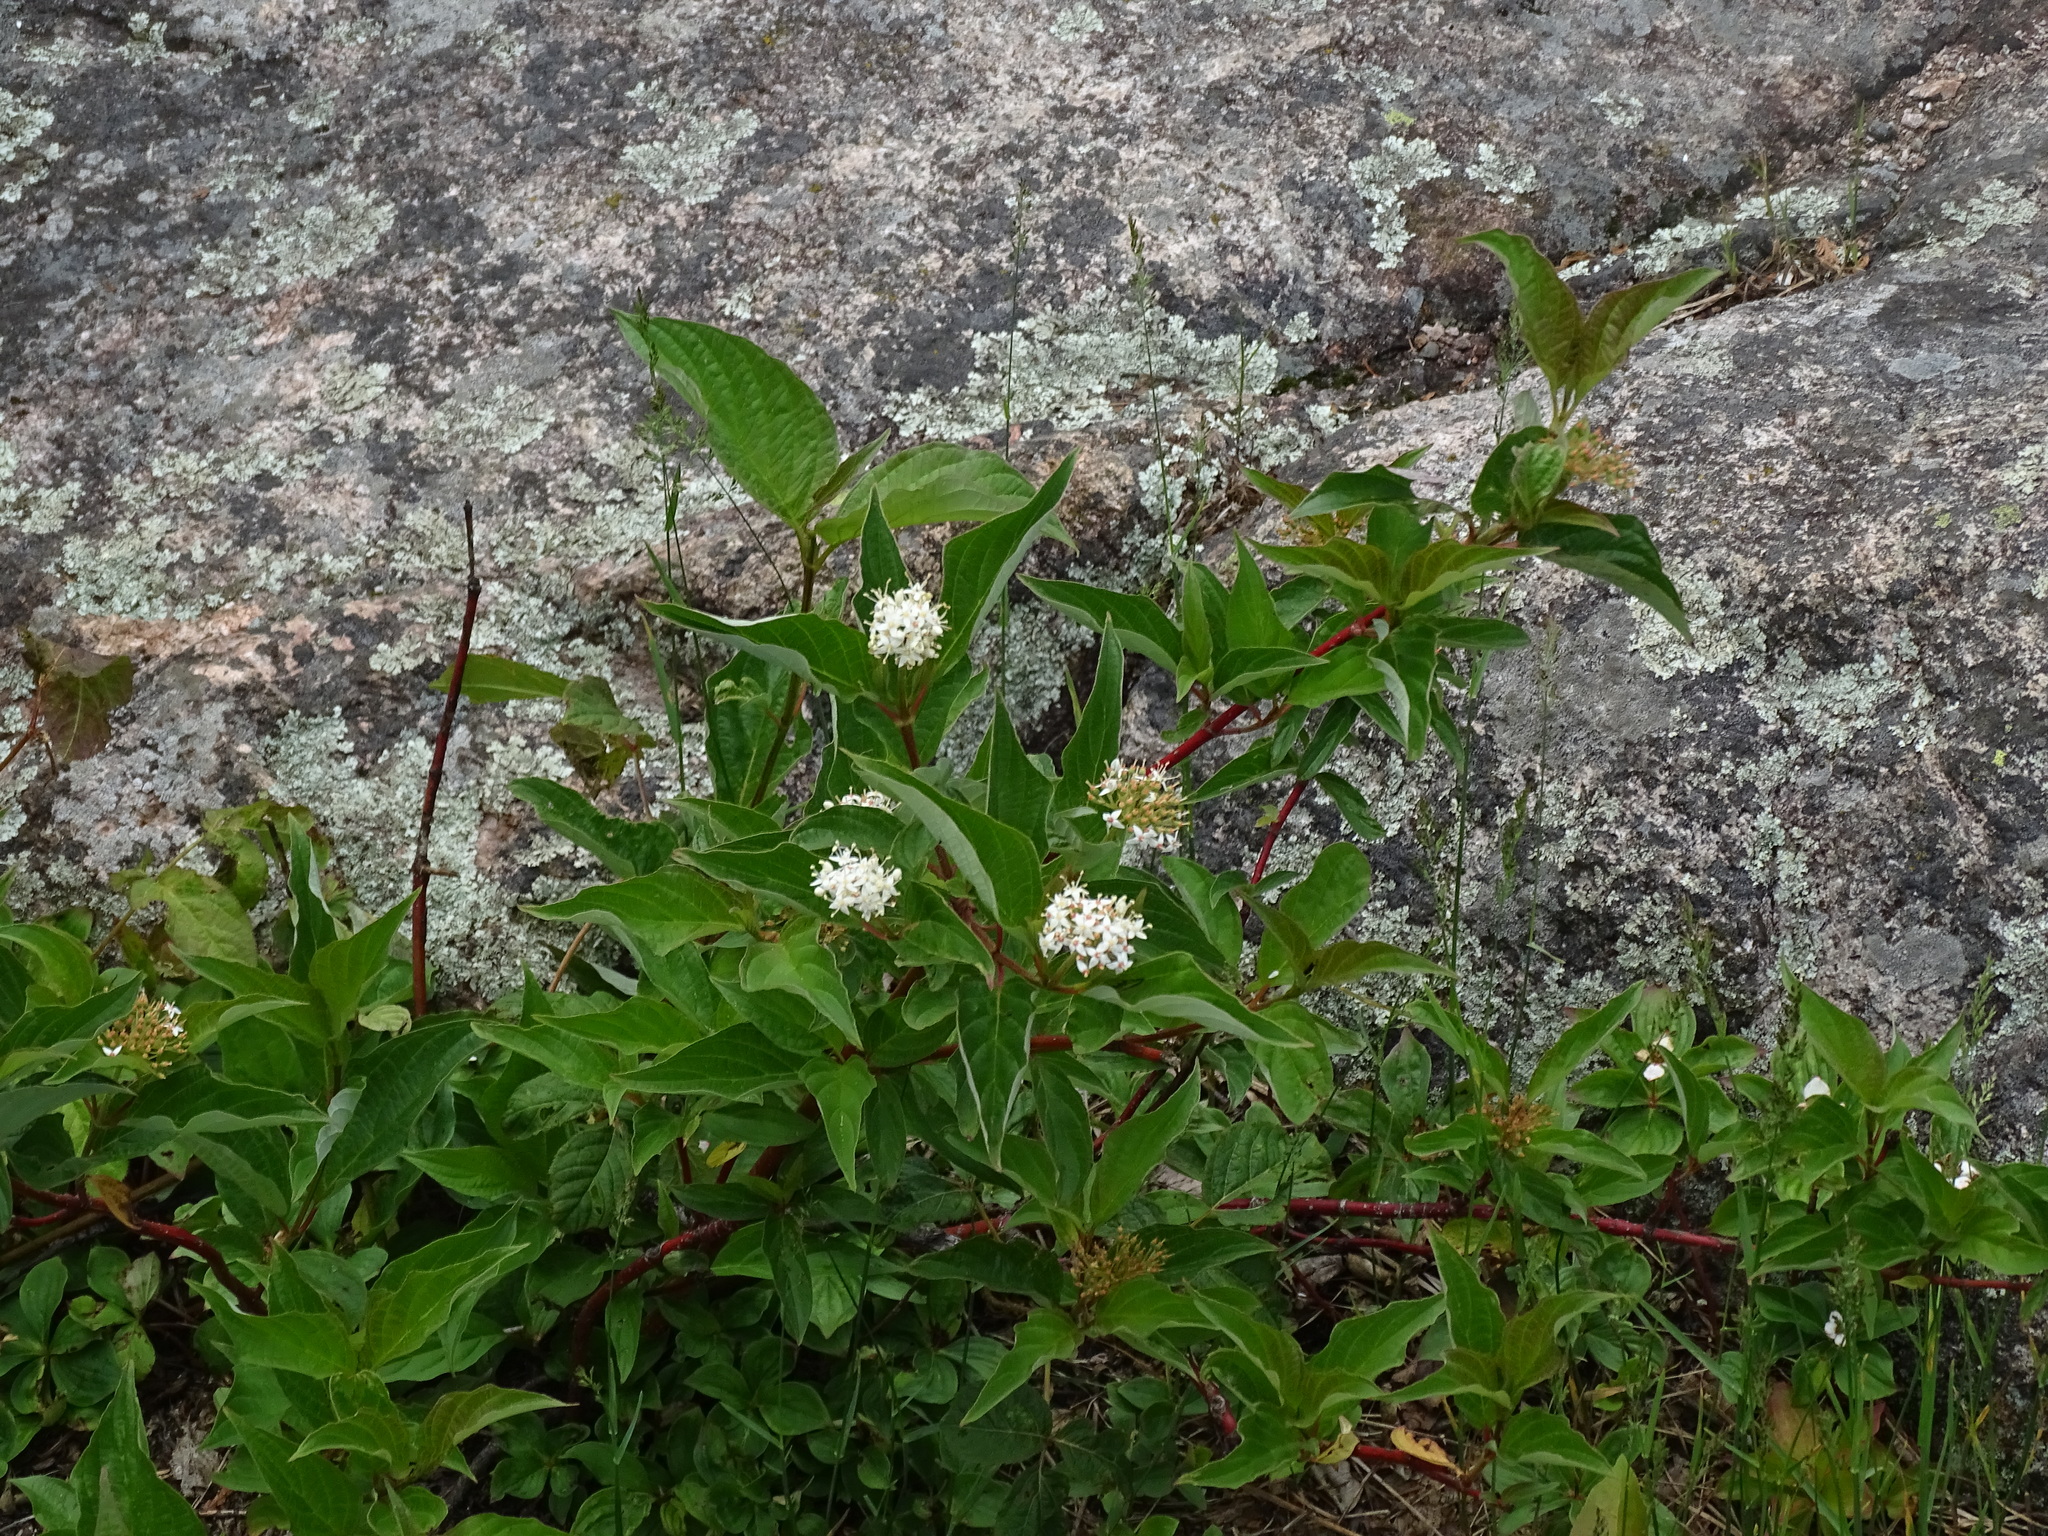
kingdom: Plantae
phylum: Tracheophyta
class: Magnoliopsida
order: Cornales
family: Cornaceae
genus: Cornus
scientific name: Cornus sericea
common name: Red-osier dogwood
